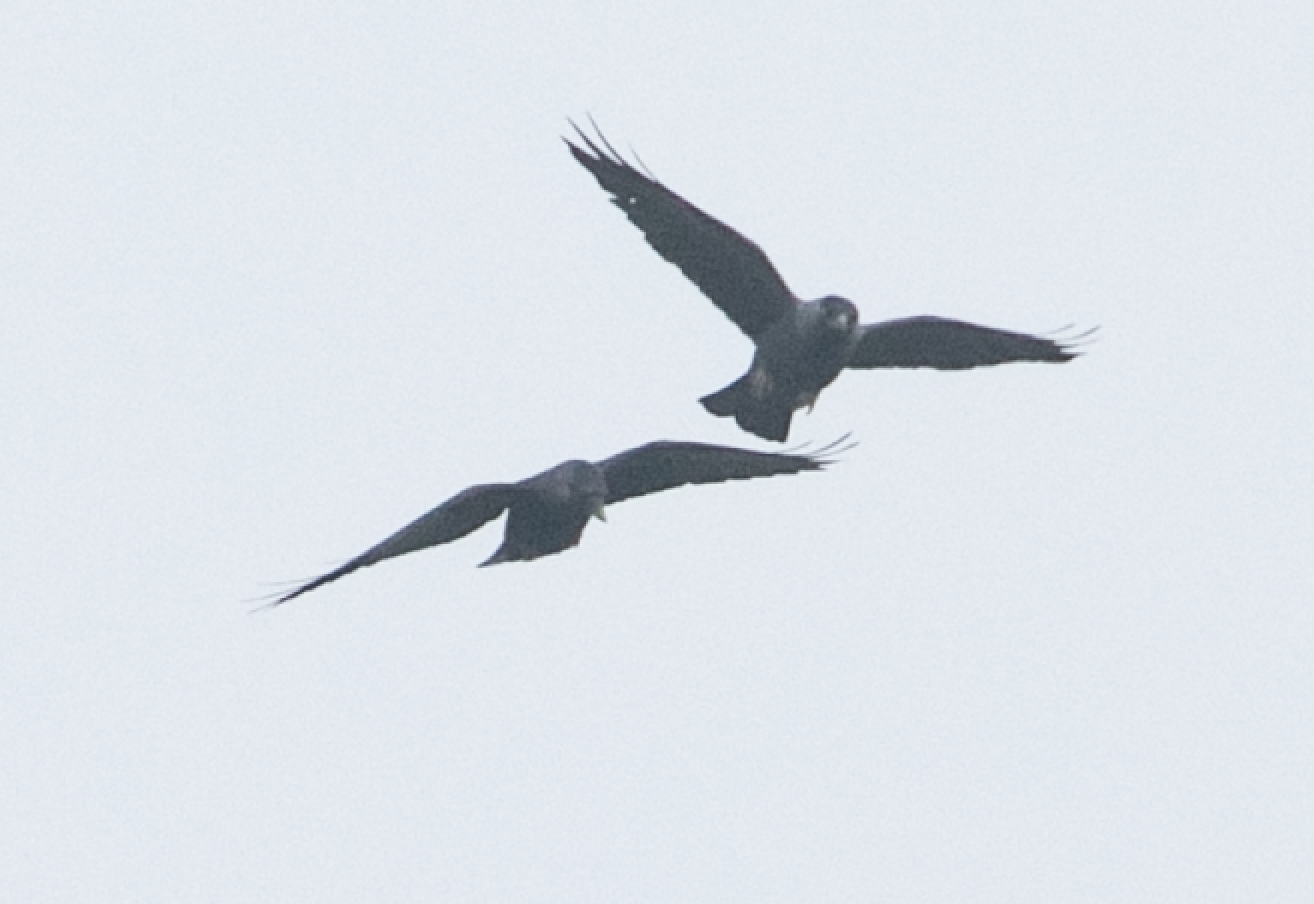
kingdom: Animalia
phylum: Chordata
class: Aves
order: Passeriformes
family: Corvidae
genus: Coloeus
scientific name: Coloeus monedula
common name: Western jackdaw
